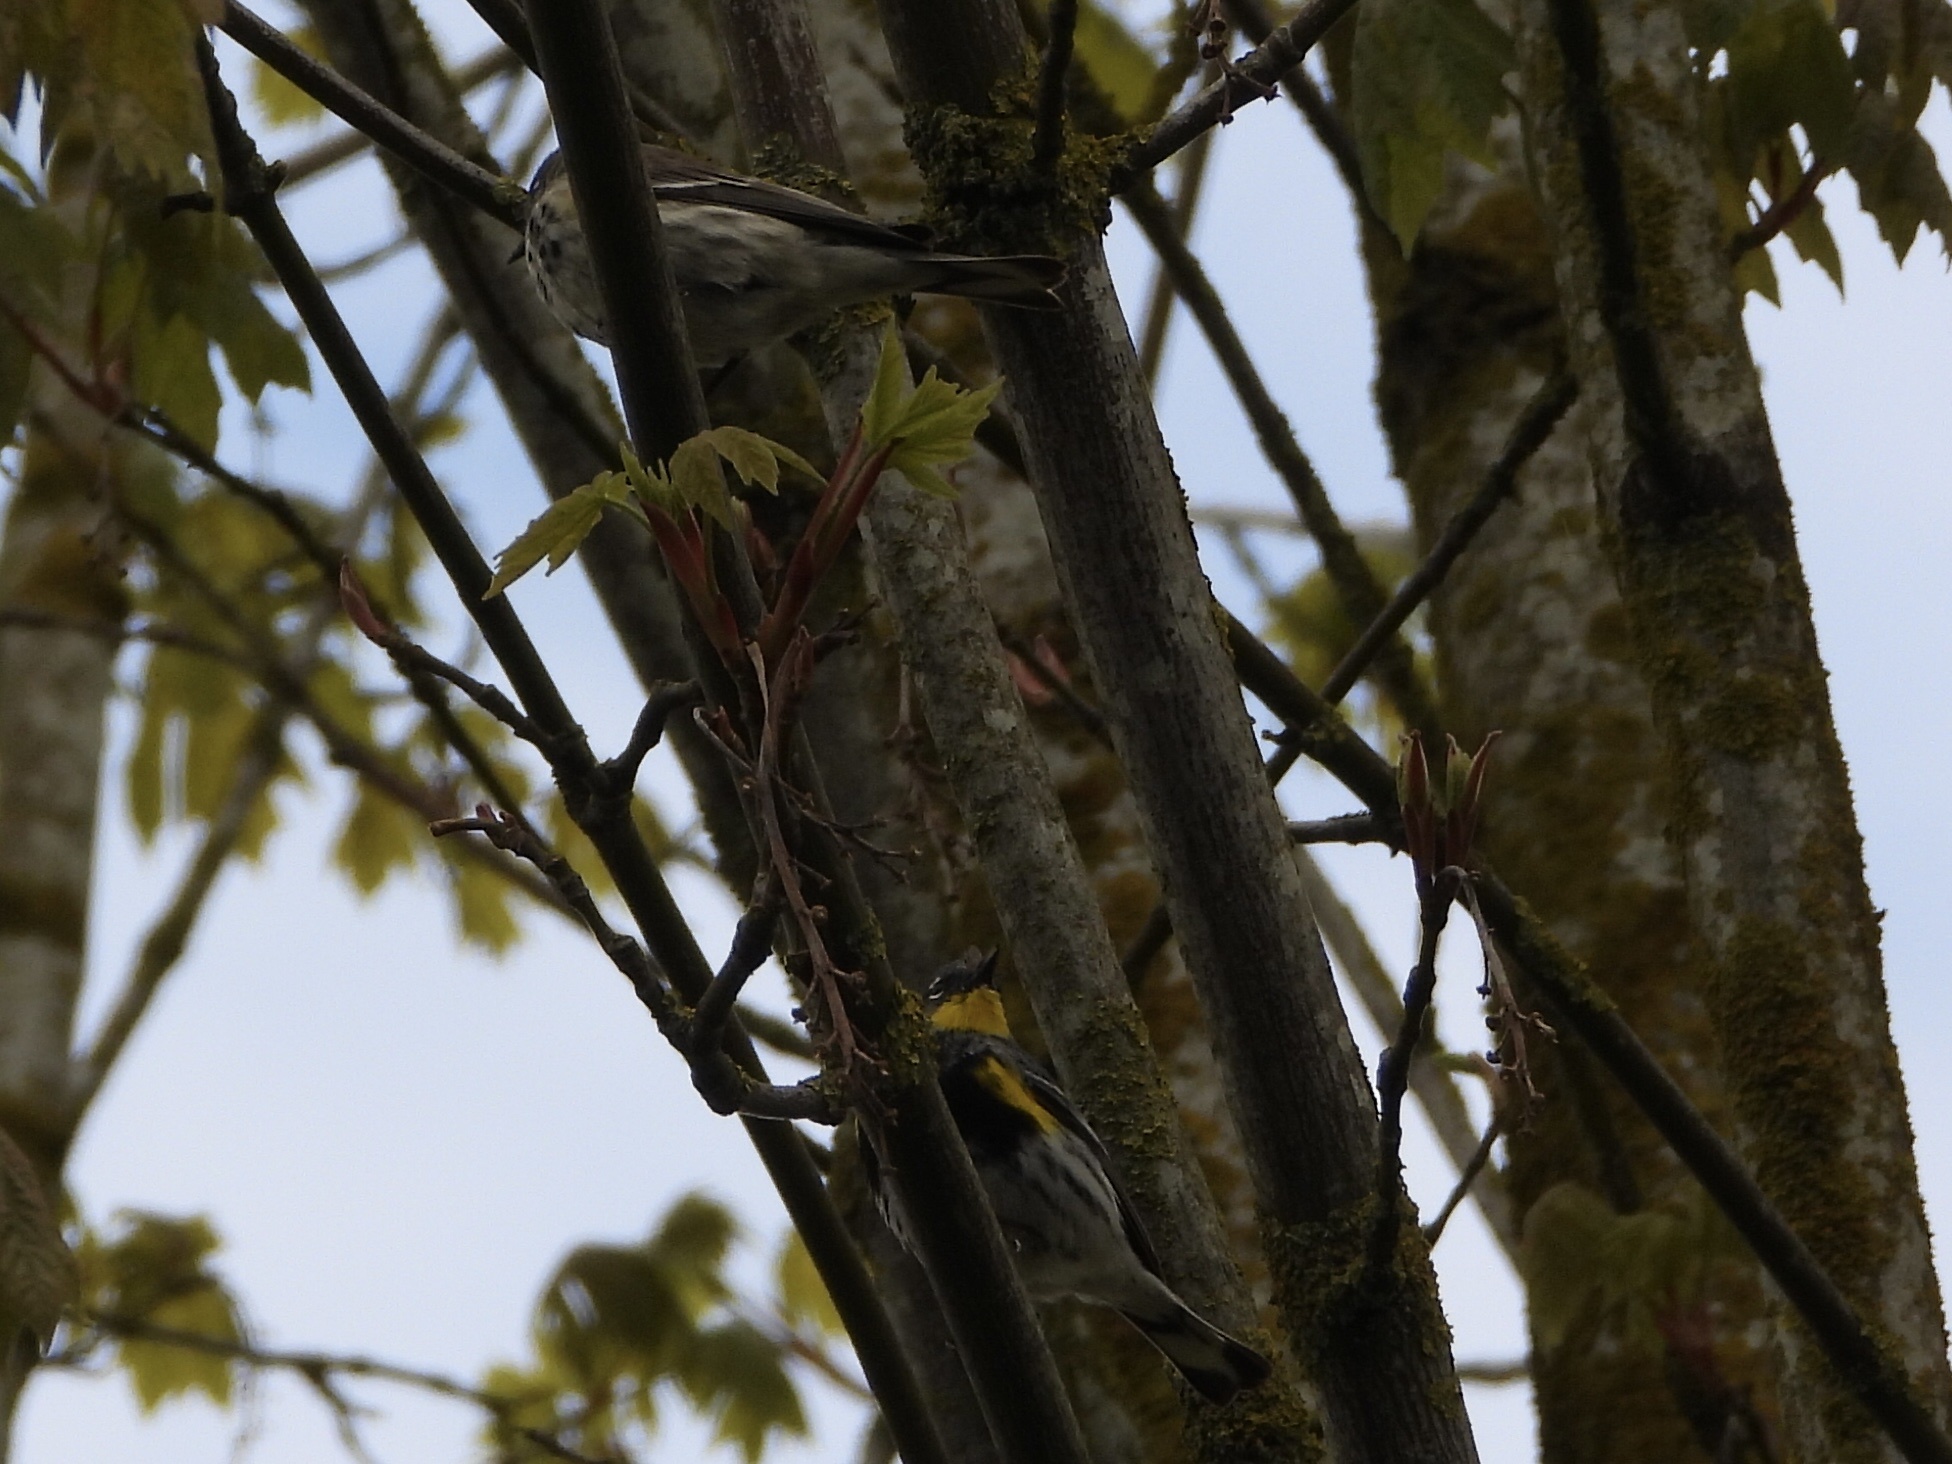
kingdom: Animalia
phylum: Chordata
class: Aves
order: Passeriformes
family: Parulidae
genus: Setophaga
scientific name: Setophaga auduboni
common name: Audubon's warbler
